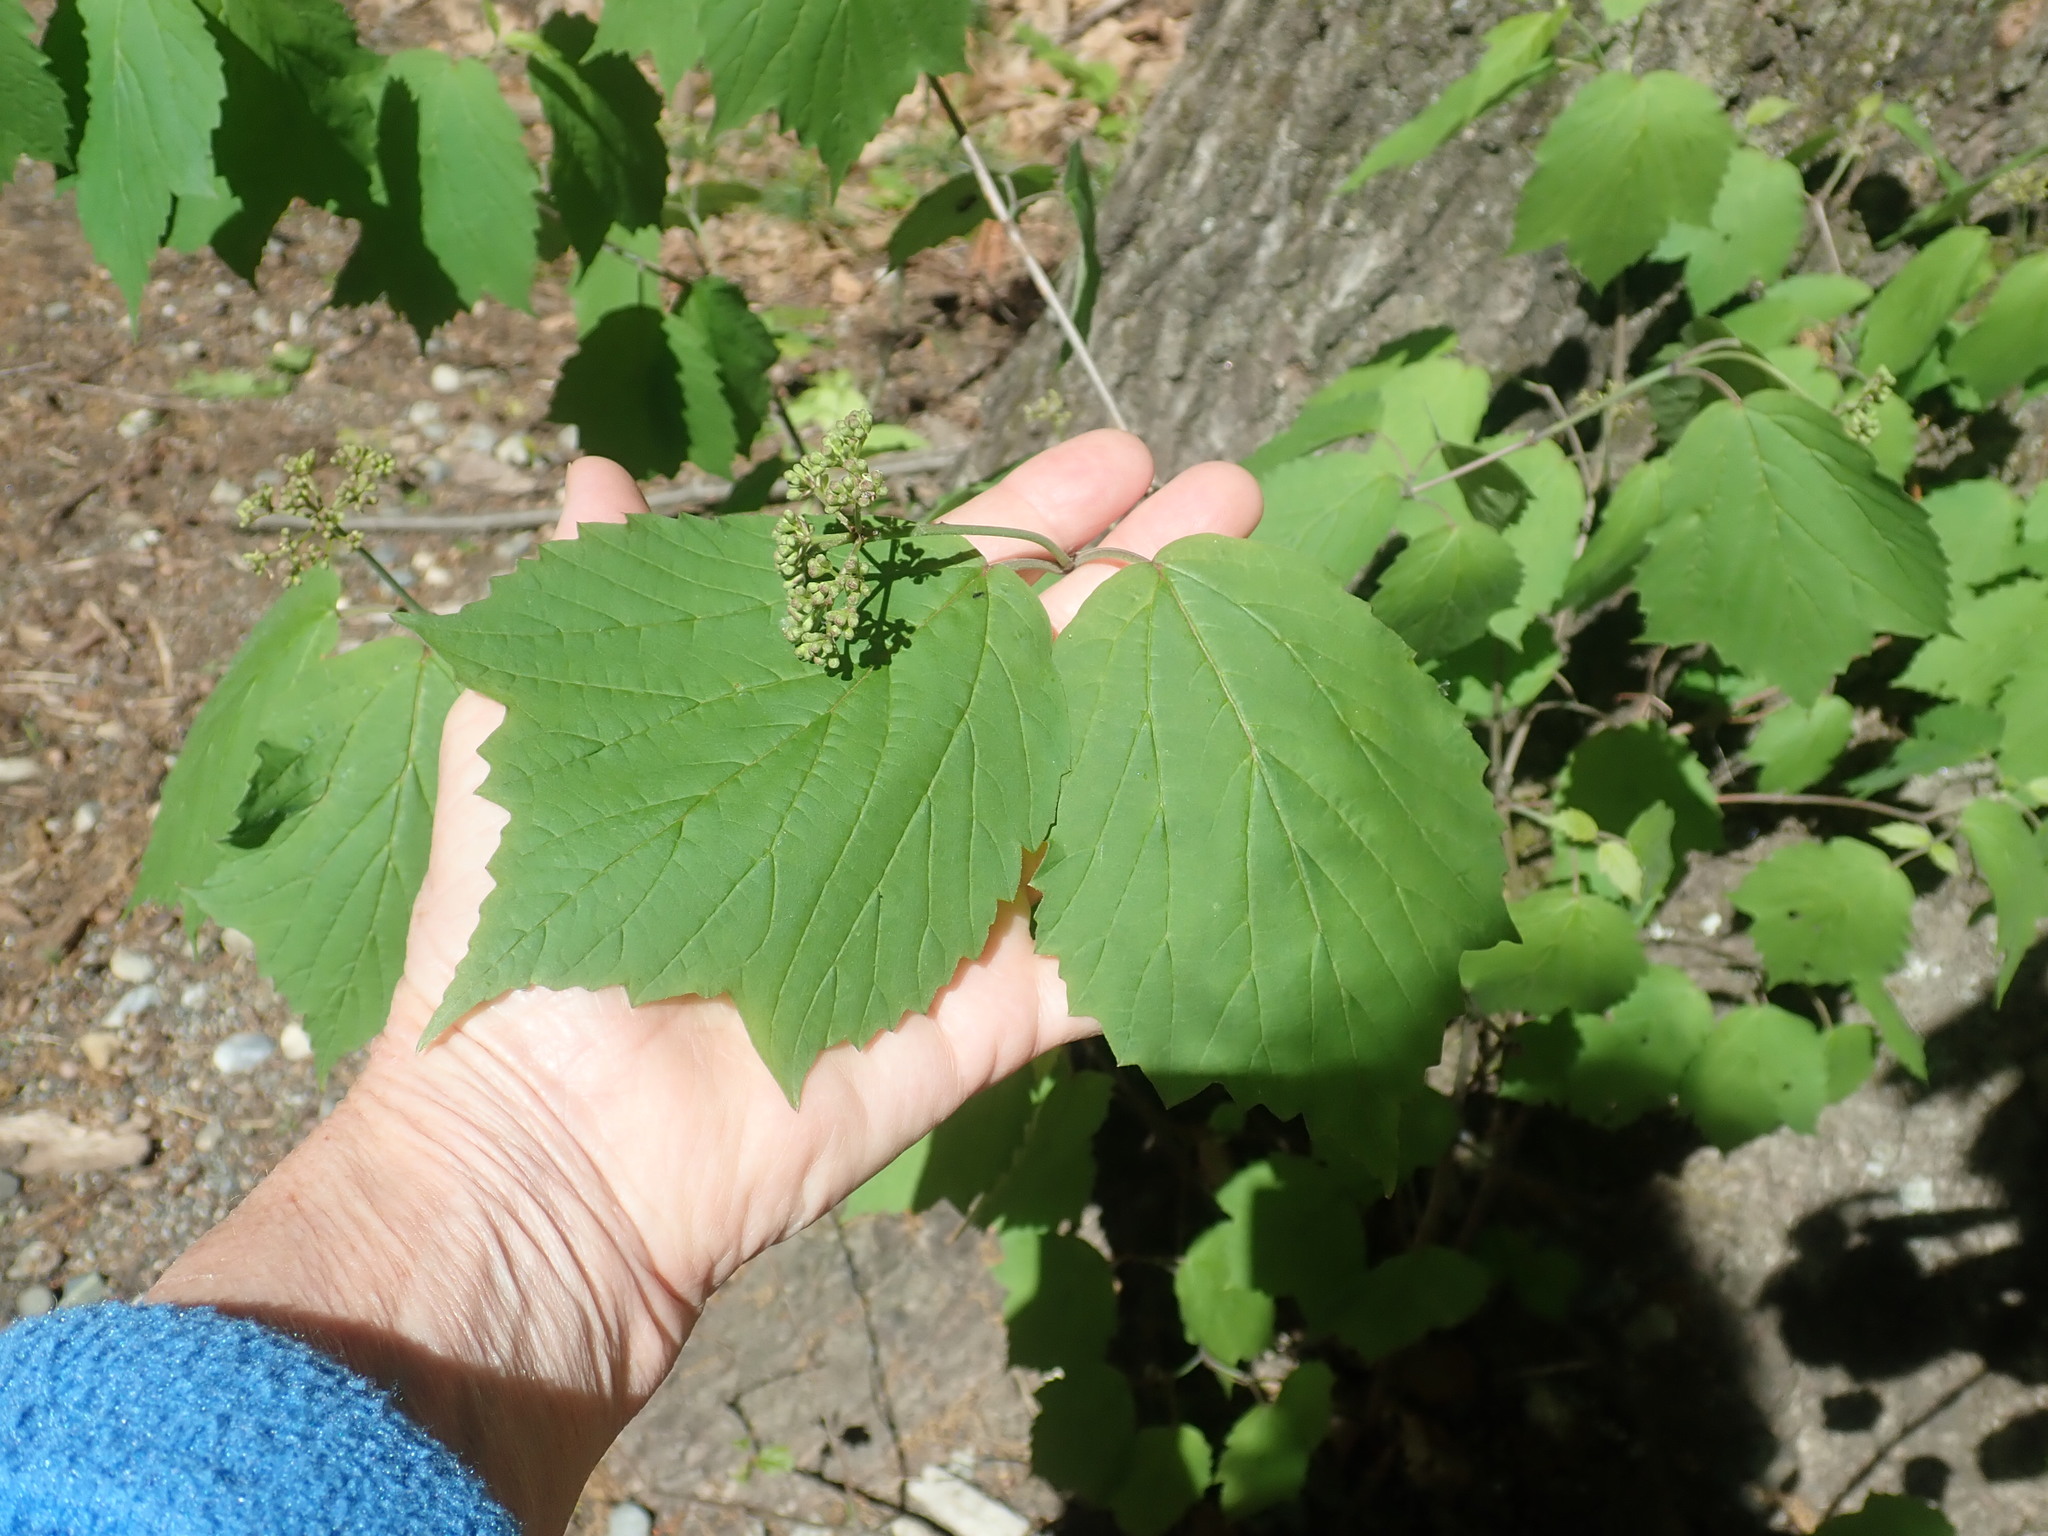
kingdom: Plantae
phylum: Tracheophyta
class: Magnoliopsida
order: Dipsacales
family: Viburnaceae
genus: Viburnum
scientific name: Viburnum acerifolium
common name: Dockmackie
